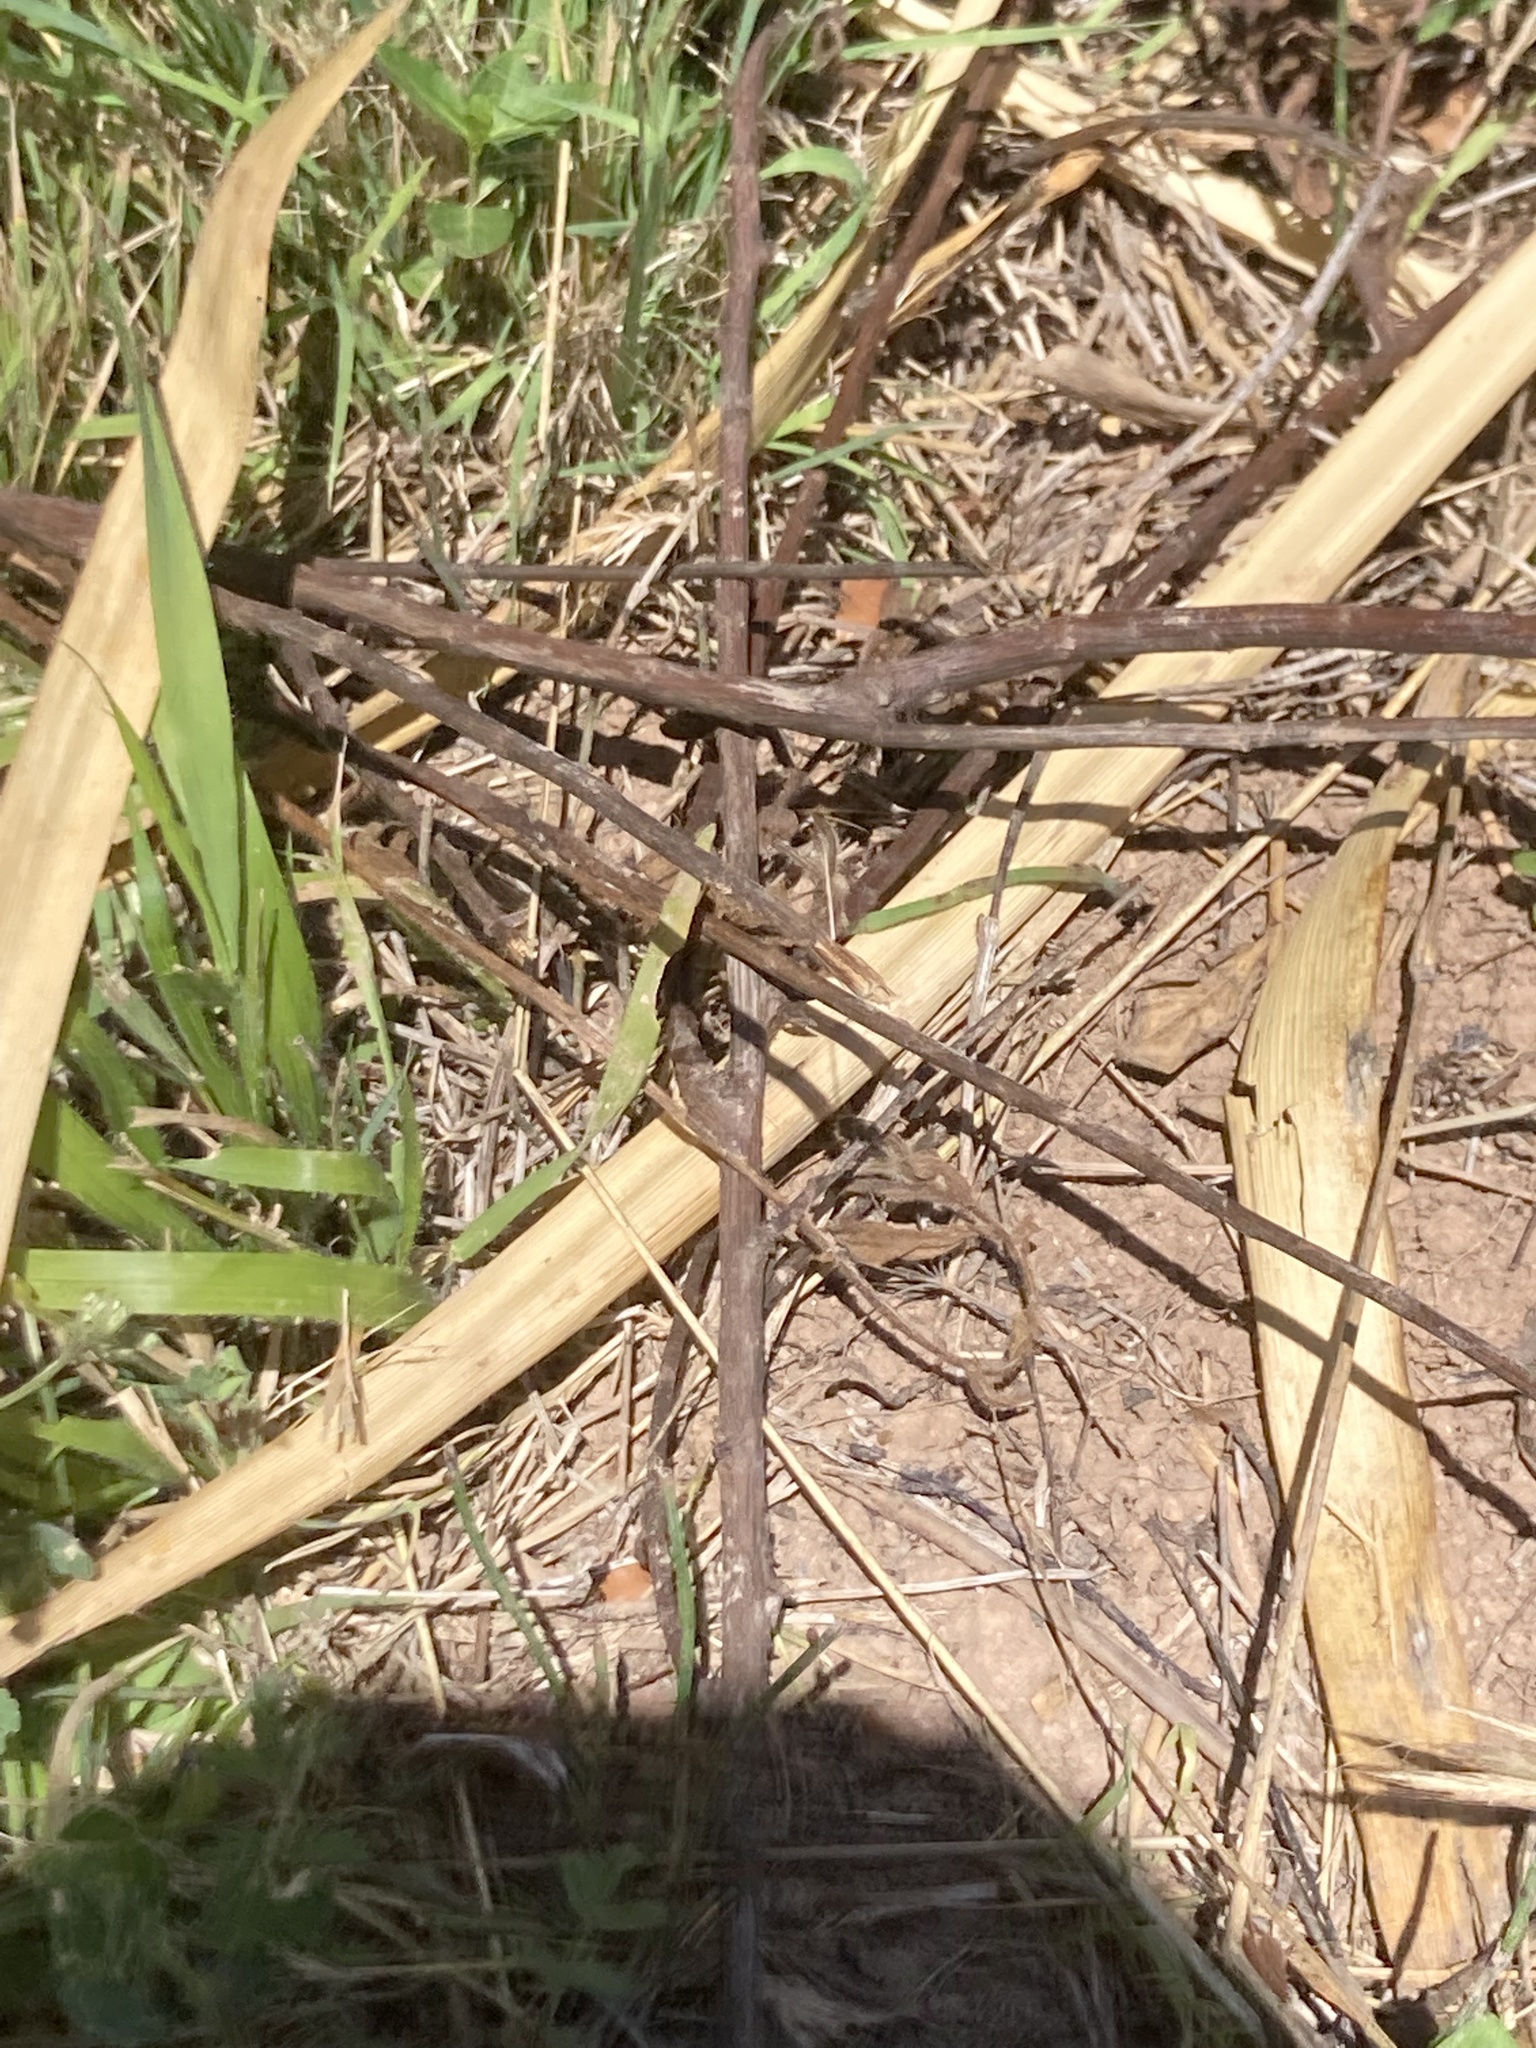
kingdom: Animalia
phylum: Chordata
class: Squamata
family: Lacertidae
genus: Psammodromus
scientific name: Psammodromus algirus
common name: Algerian psammodromus
